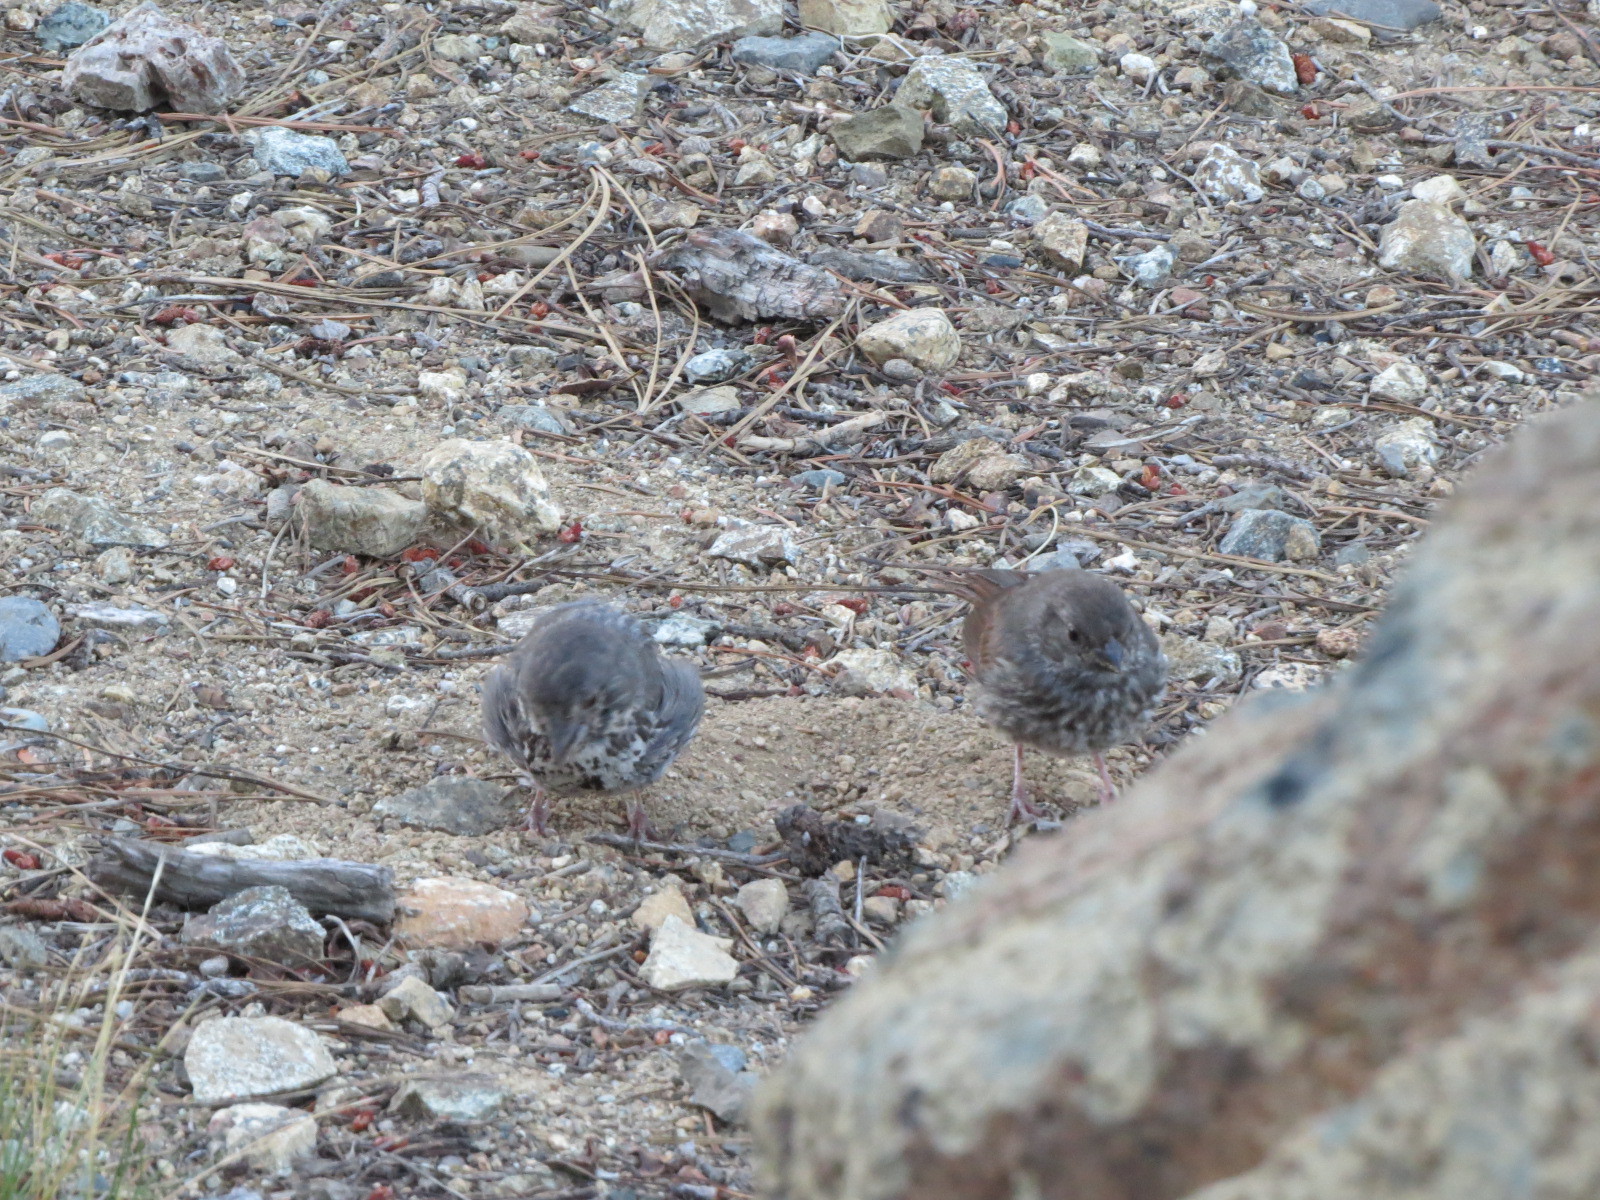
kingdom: Animalia
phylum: Chordata
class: Aves
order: Passeriformes
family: Passerellidae
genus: Passerella
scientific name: Passerella iliaca
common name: Fox sparrow
